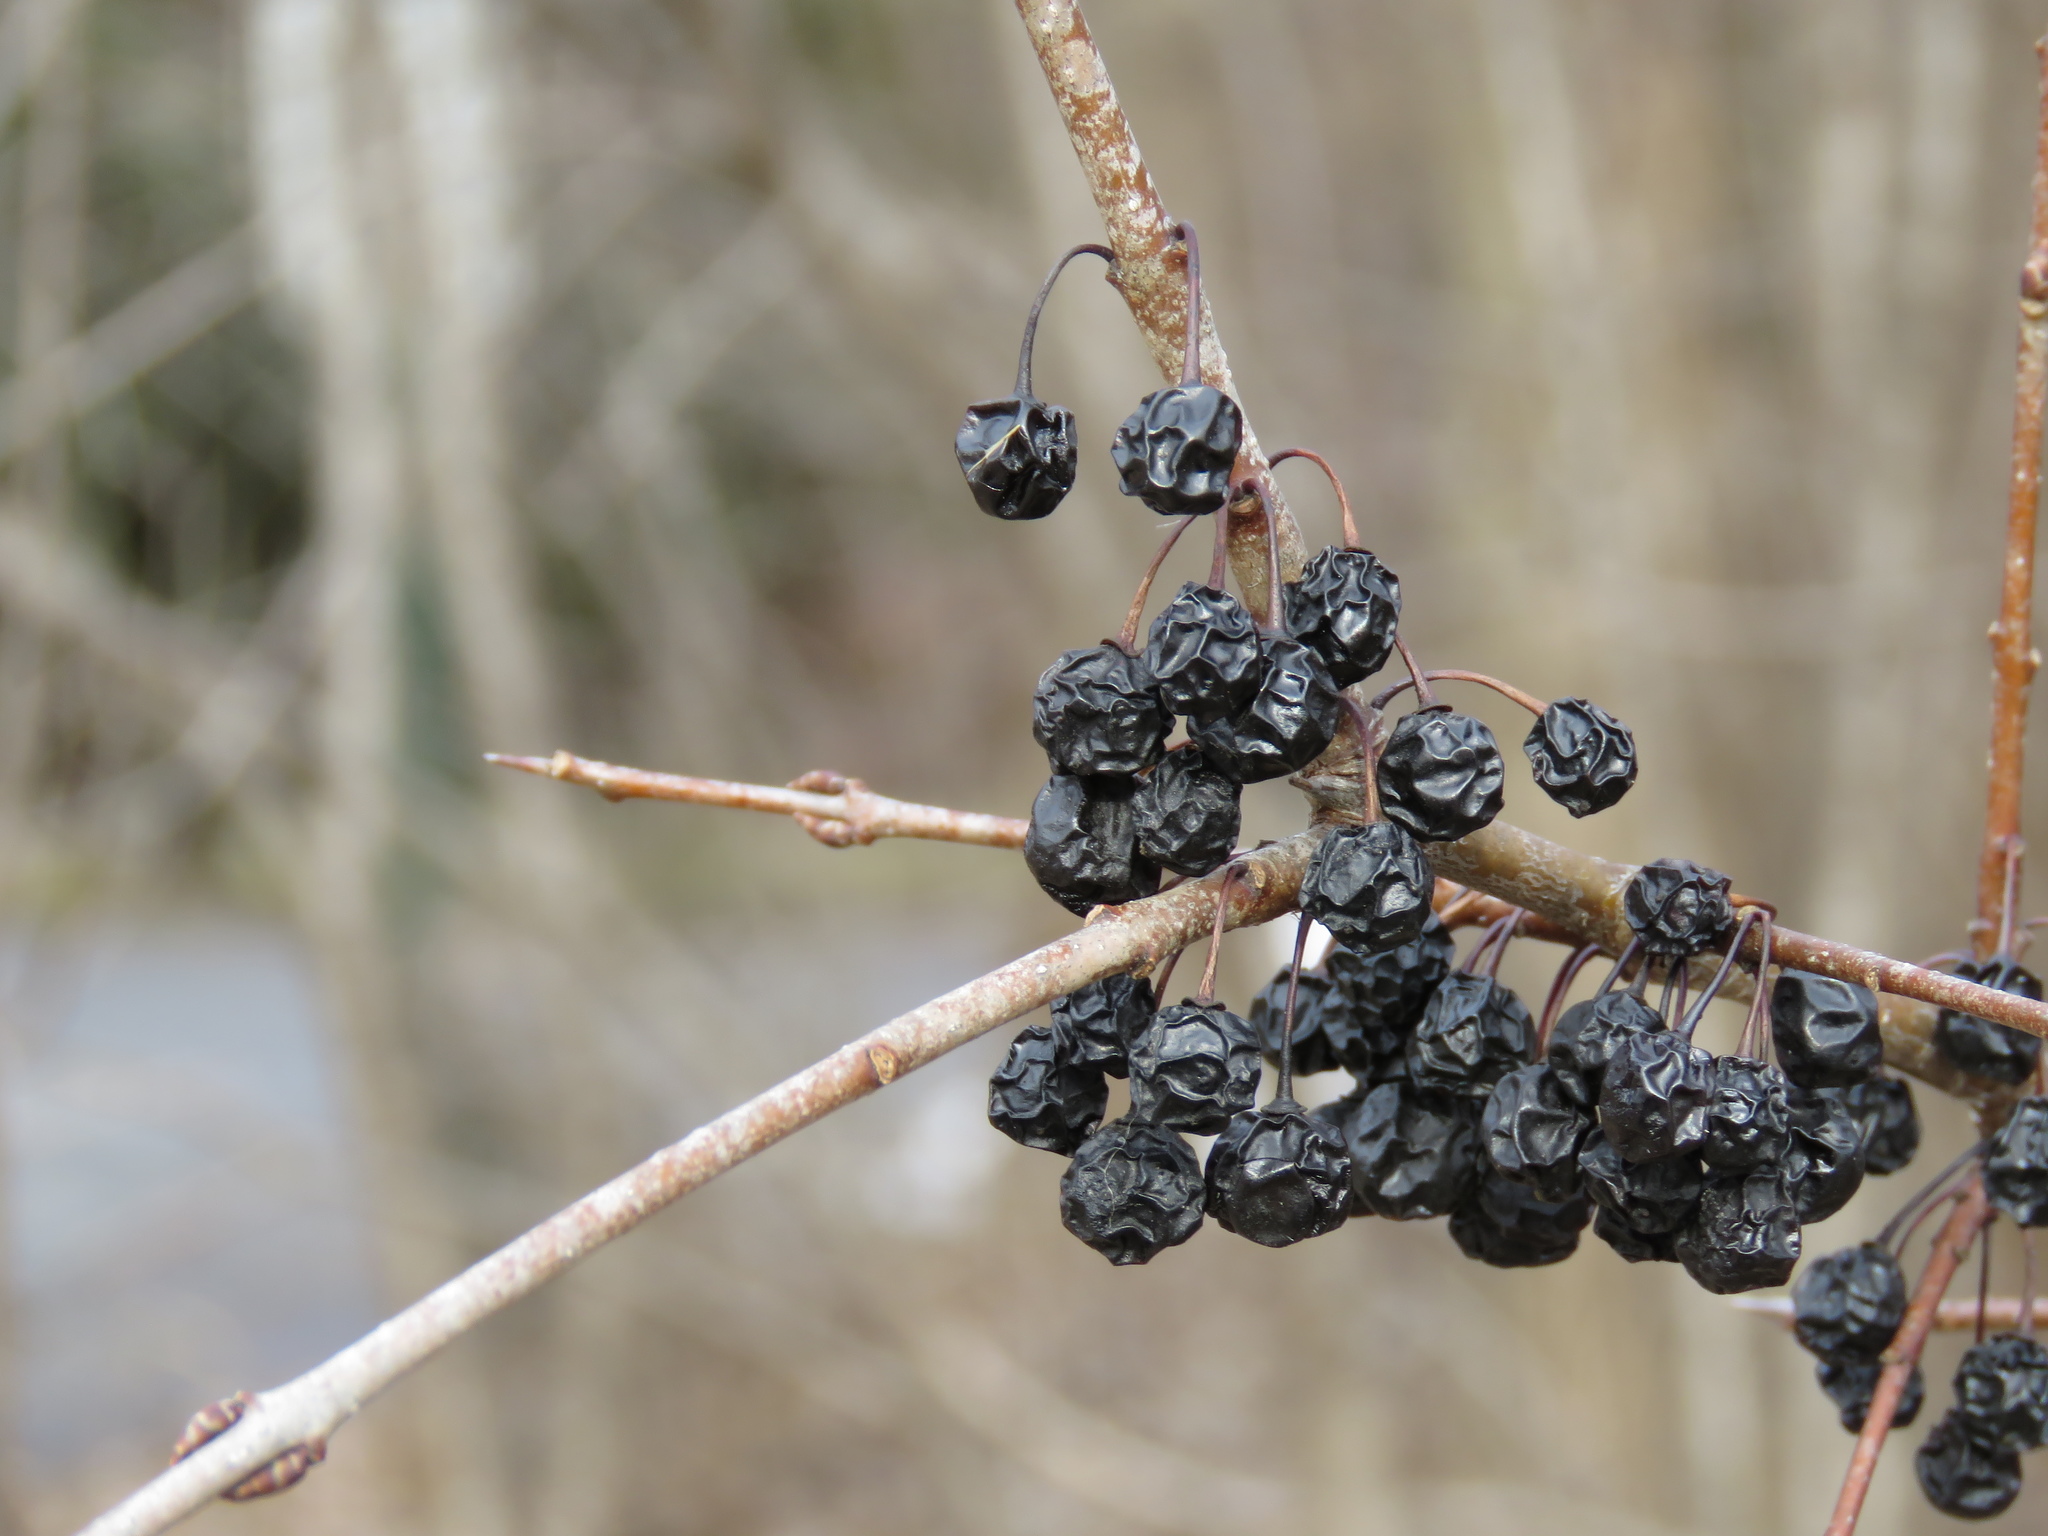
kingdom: Plantae
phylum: Tracheophyta
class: Magnoliopsida
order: Rosales
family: Rhamnaceae
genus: Rhamnus
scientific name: Rhamnus cathartica
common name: Common buckthorn
